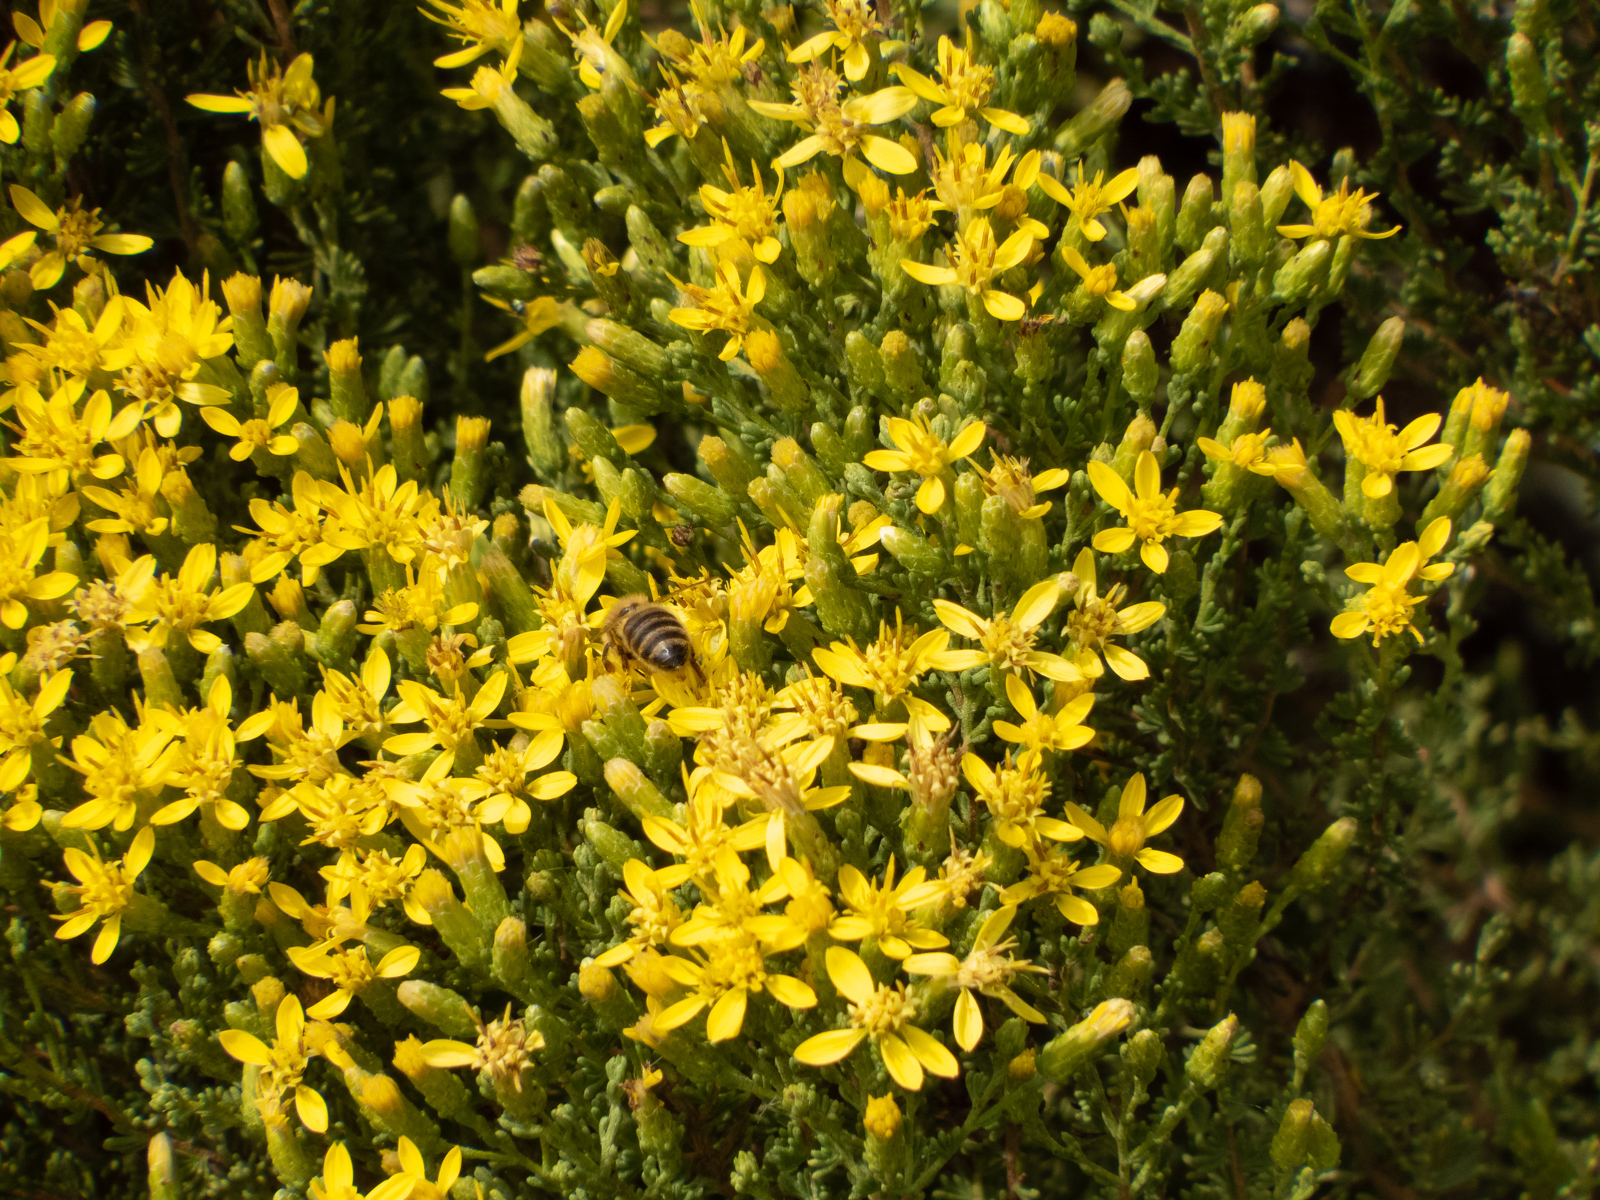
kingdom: Plantae
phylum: Tracheophyta
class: Magnoliopsida
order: Asterales
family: Asteraceae
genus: Ericameria
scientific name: Ericameria ericoides
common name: California goldenbush
